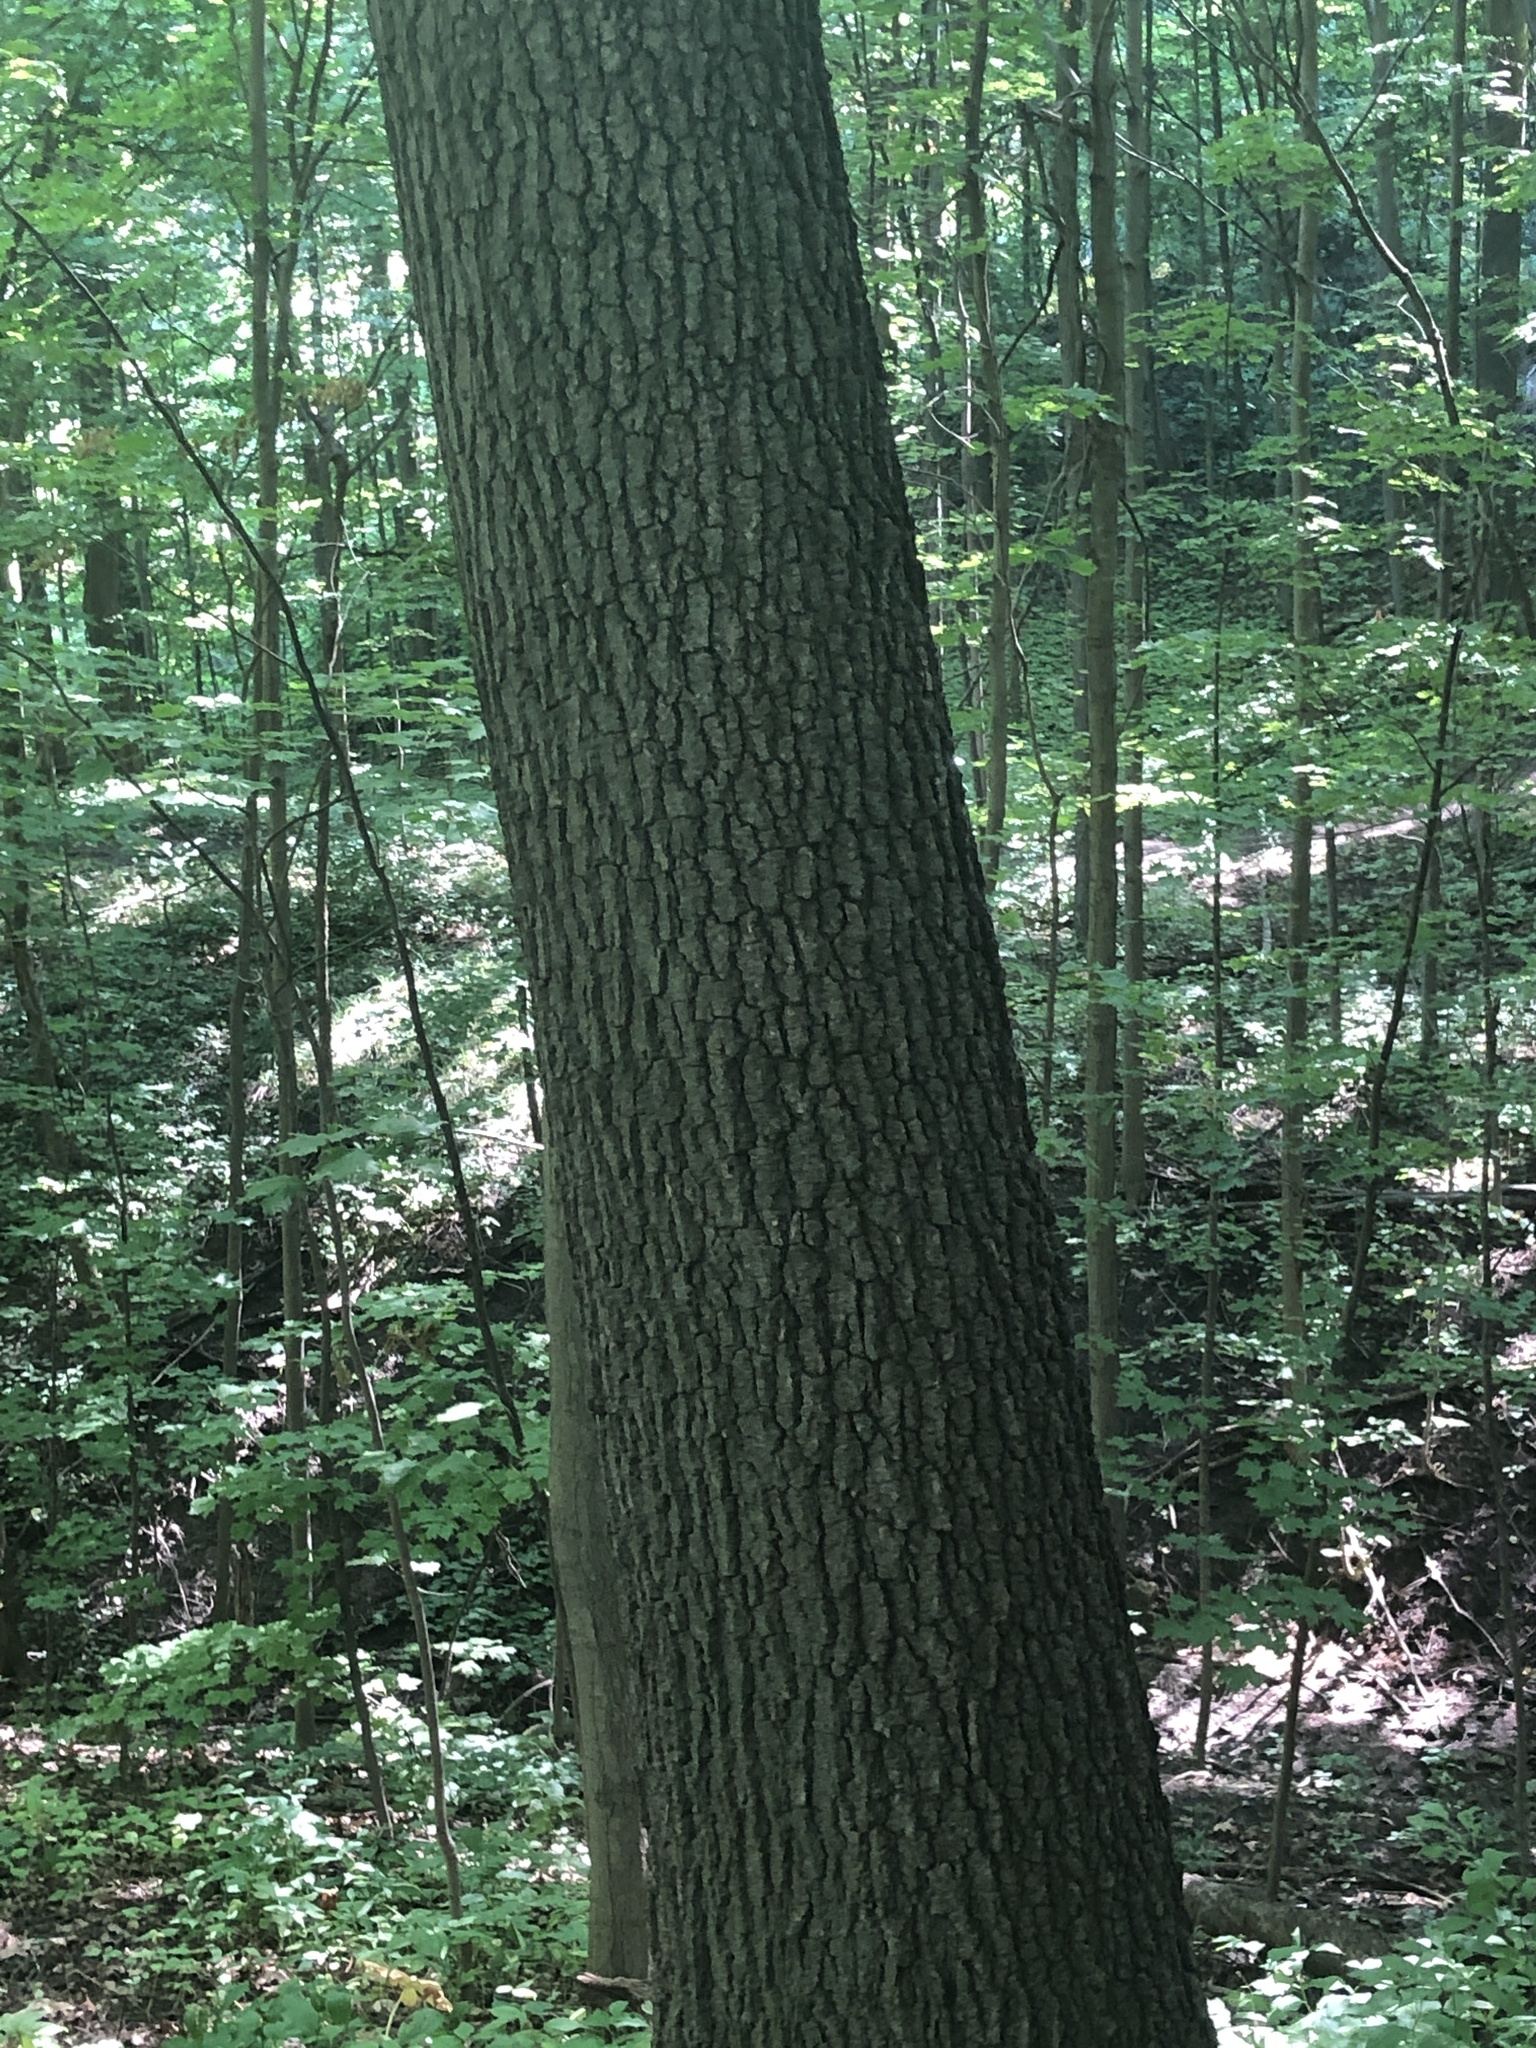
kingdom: Plantae
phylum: Tracheophyta
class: Magnoliopsida
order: Fagales
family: Fagaceae
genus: Quercus
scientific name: Quercus velutina
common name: Black oak
